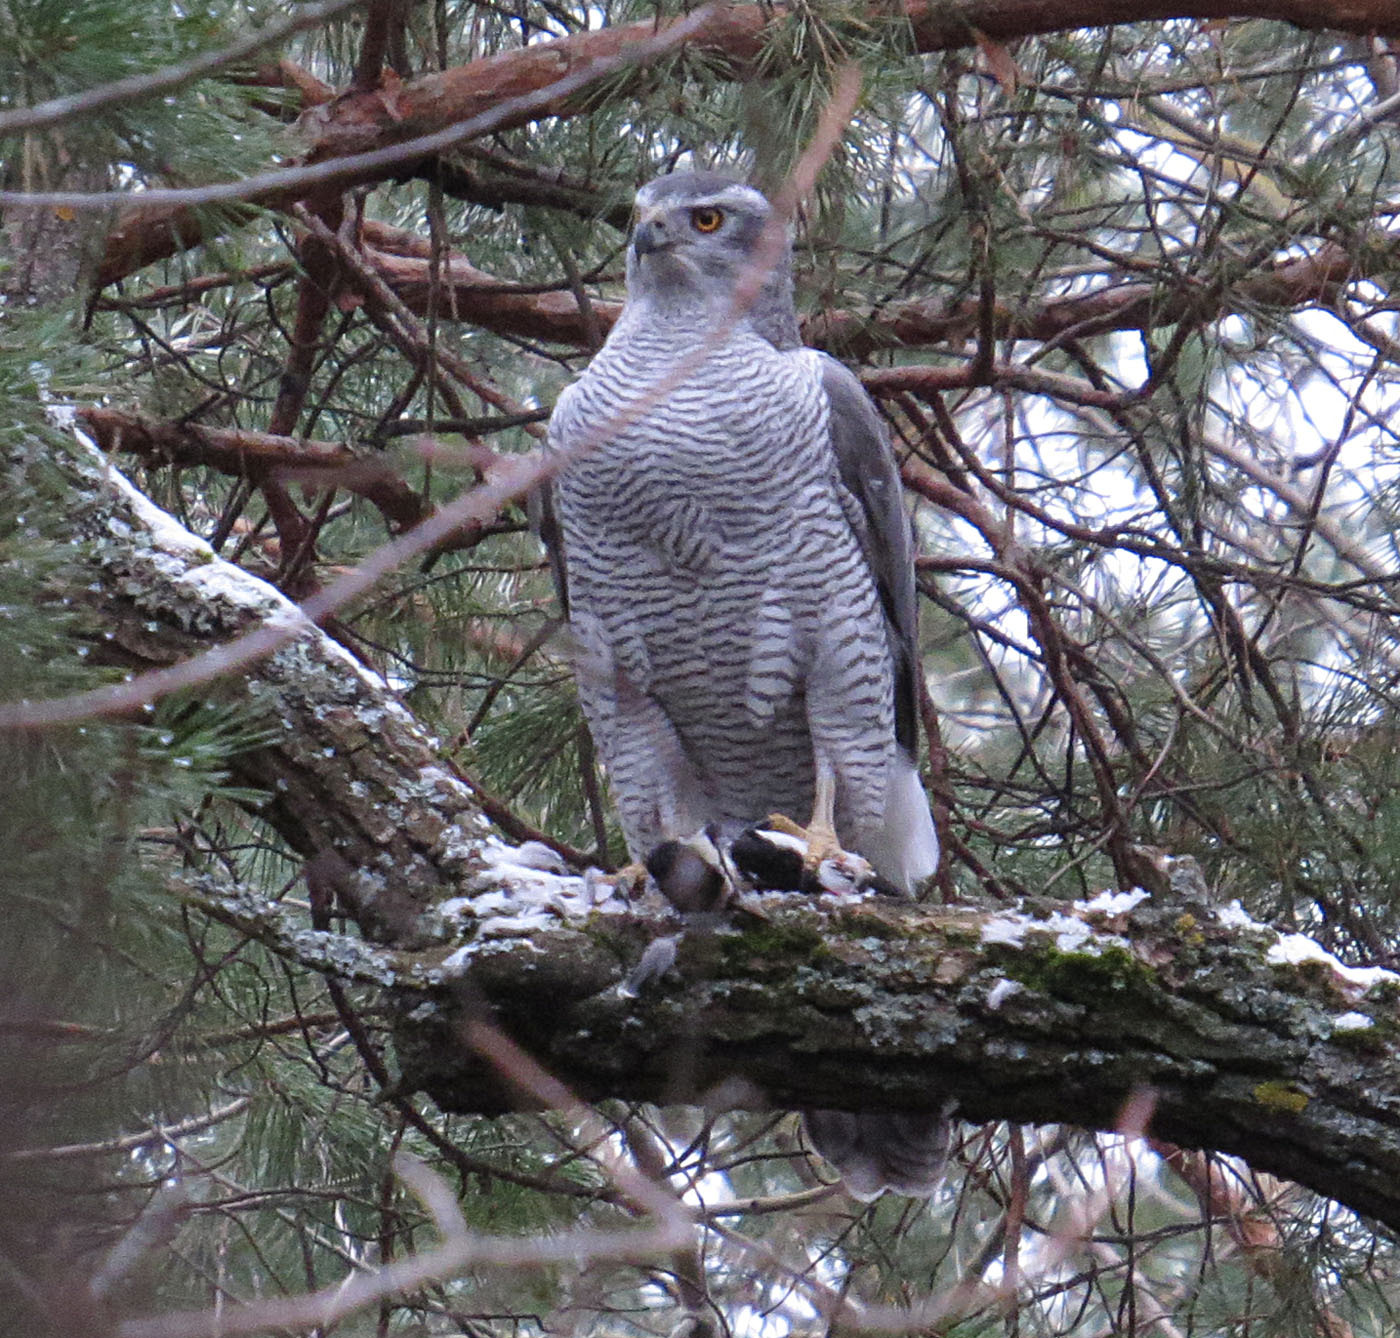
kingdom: Animalia
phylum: Chordata
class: Aves
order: Accipitriformes
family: Accipitridae
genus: Accipiter
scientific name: Accipiter gentilis
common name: Northern goshawk
